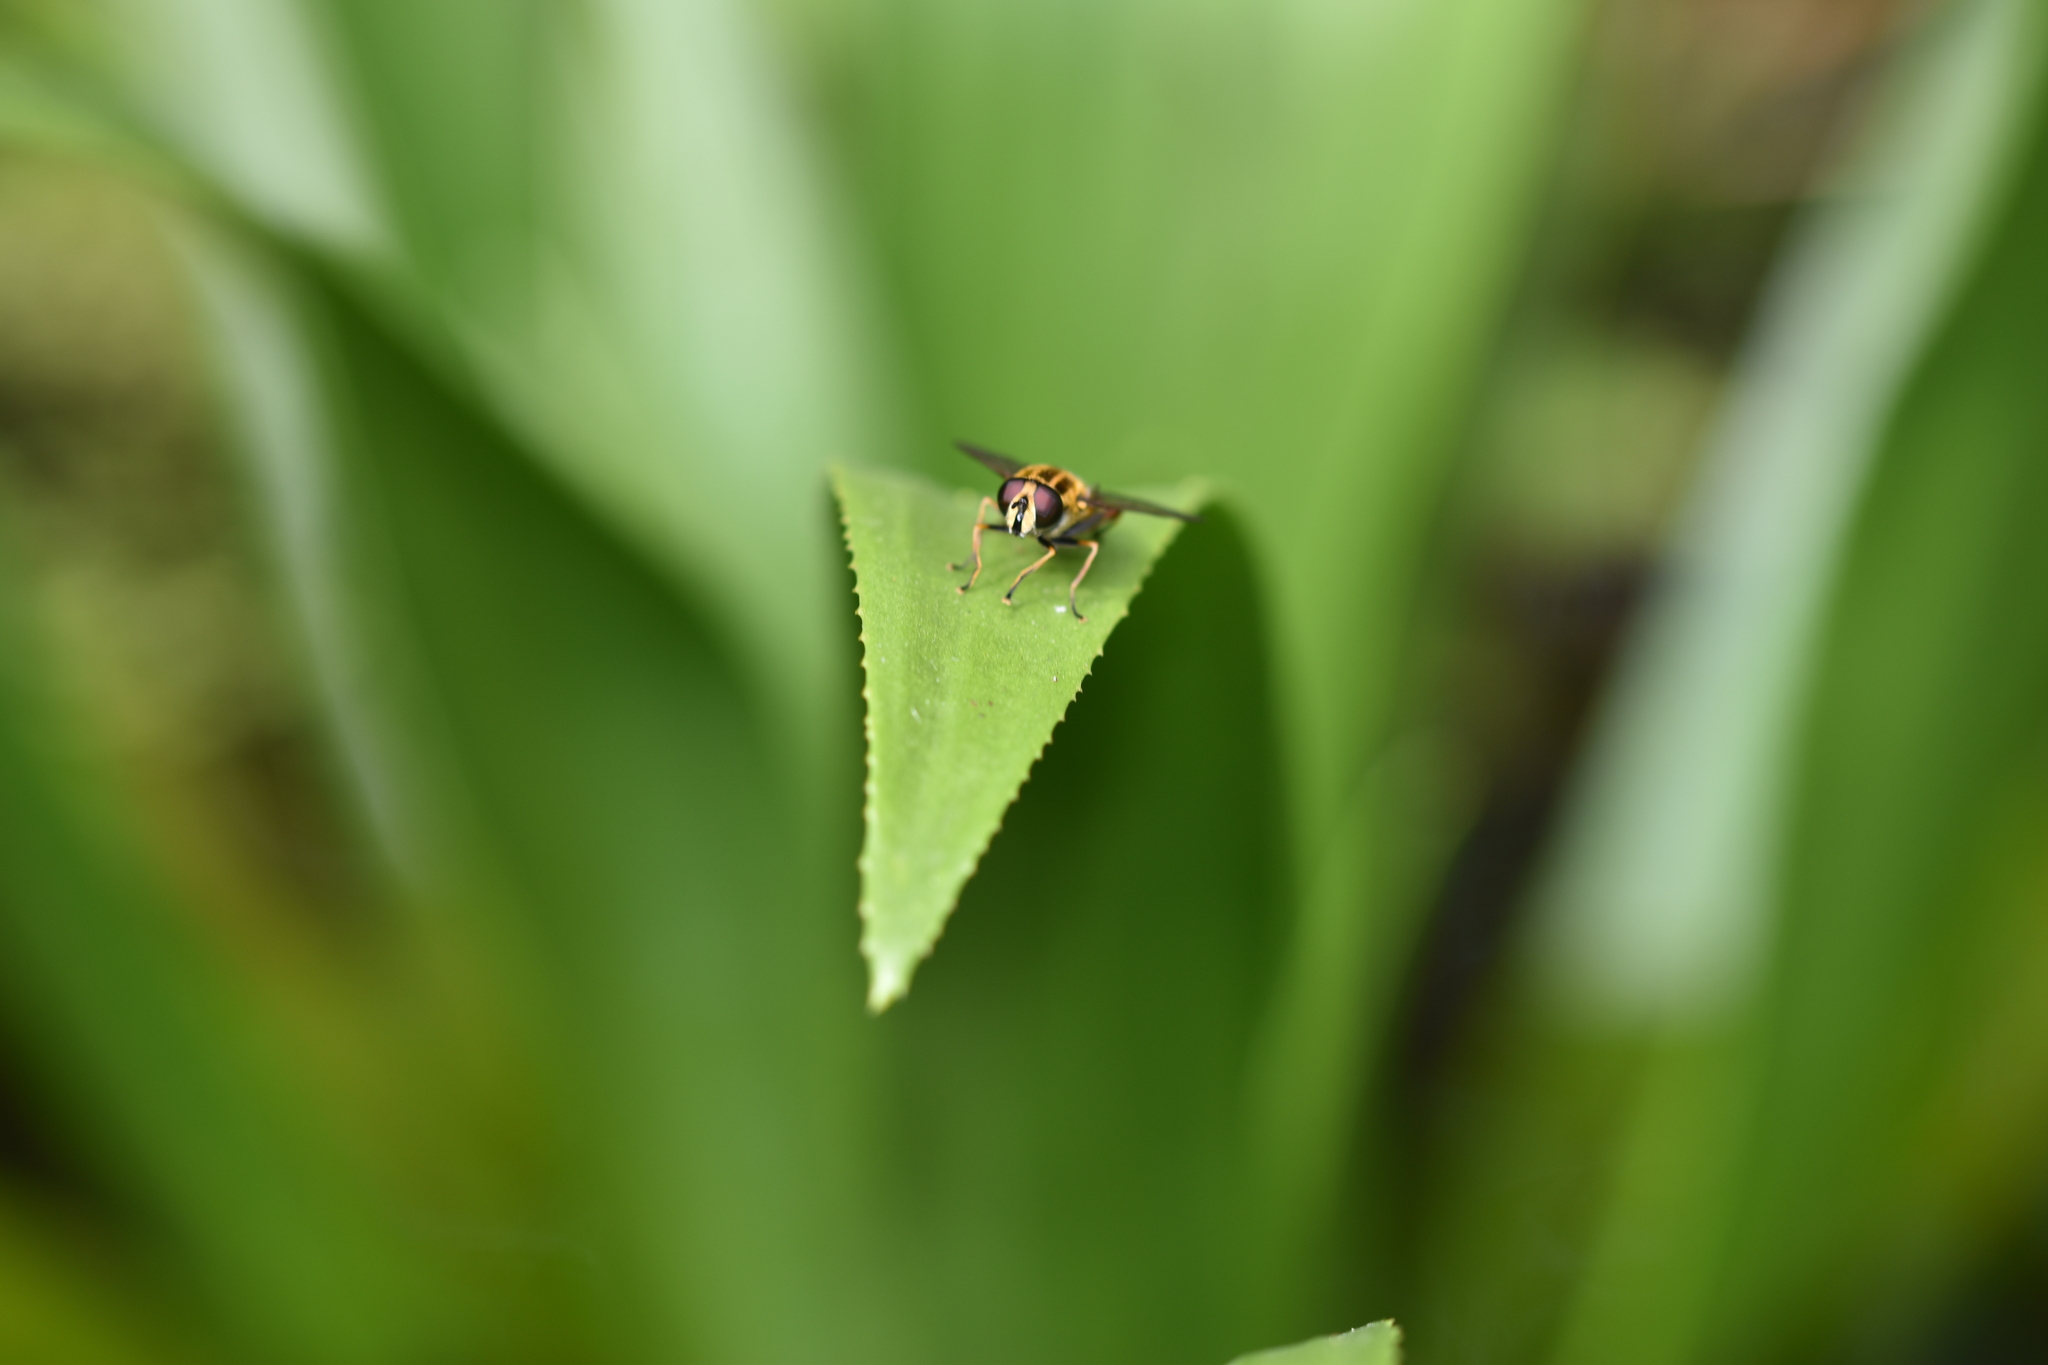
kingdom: Animalia
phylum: Arthropoda
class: Insecta
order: Diptera
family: Syrphidae
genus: Helophilus
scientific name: Helophilus pendulus
